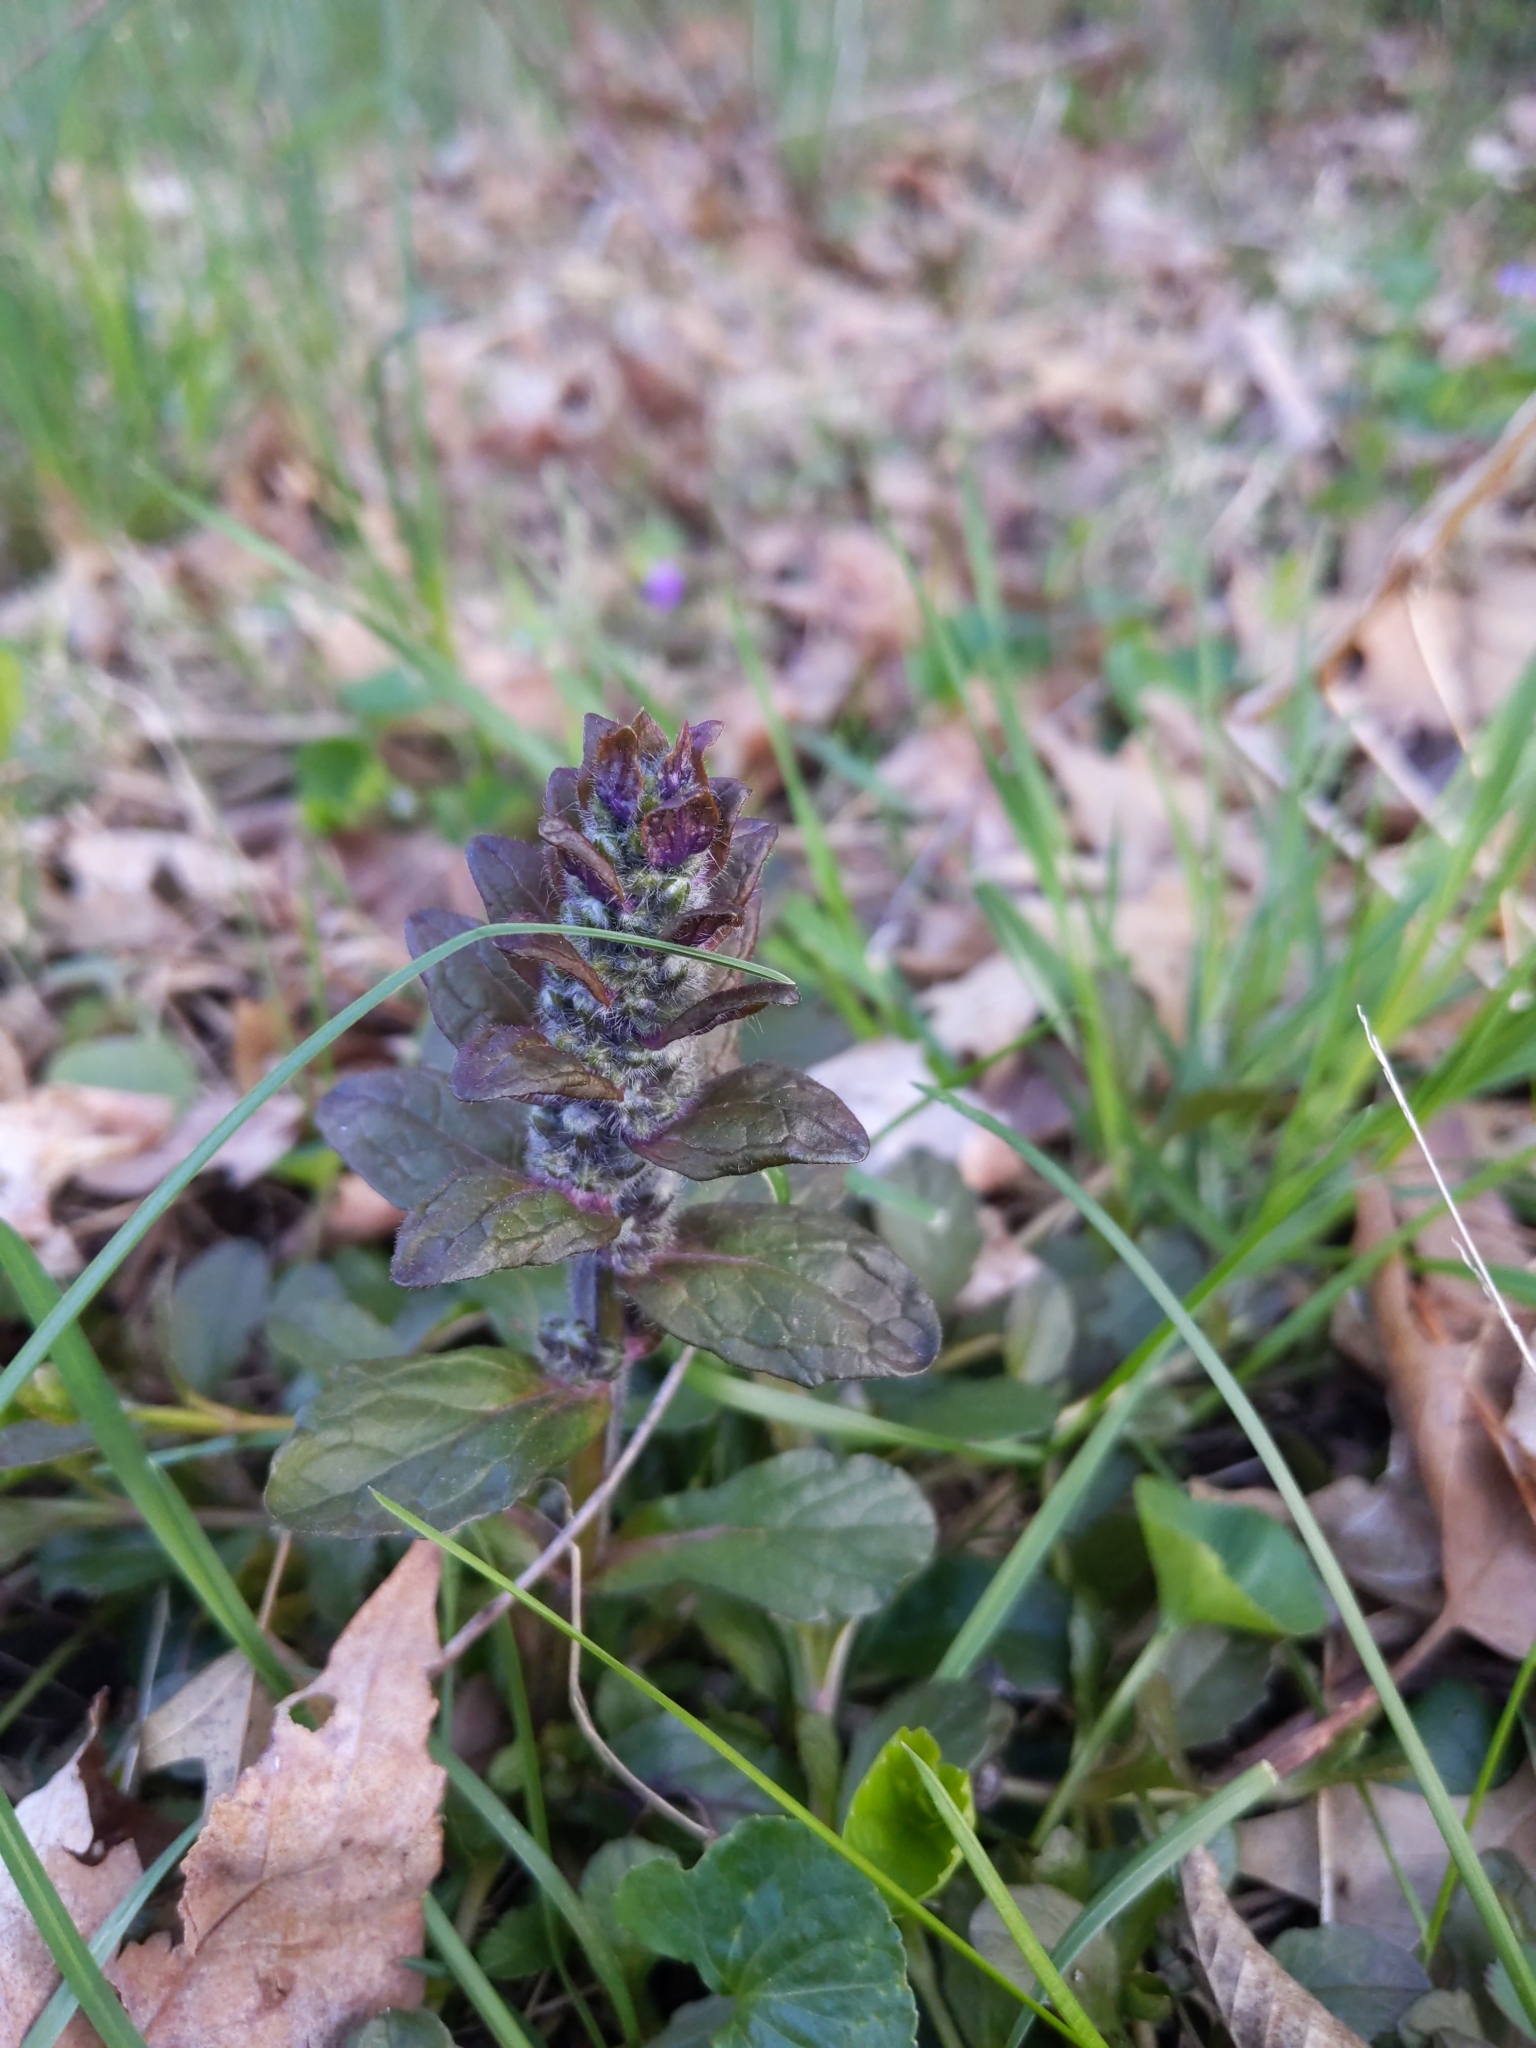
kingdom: Plantae
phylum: Tracheophyta
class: Magnoliopsida
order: Lamiales
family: Lamiaceae
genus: Ajuga
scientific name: Ajuga reptans
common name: Bugle
